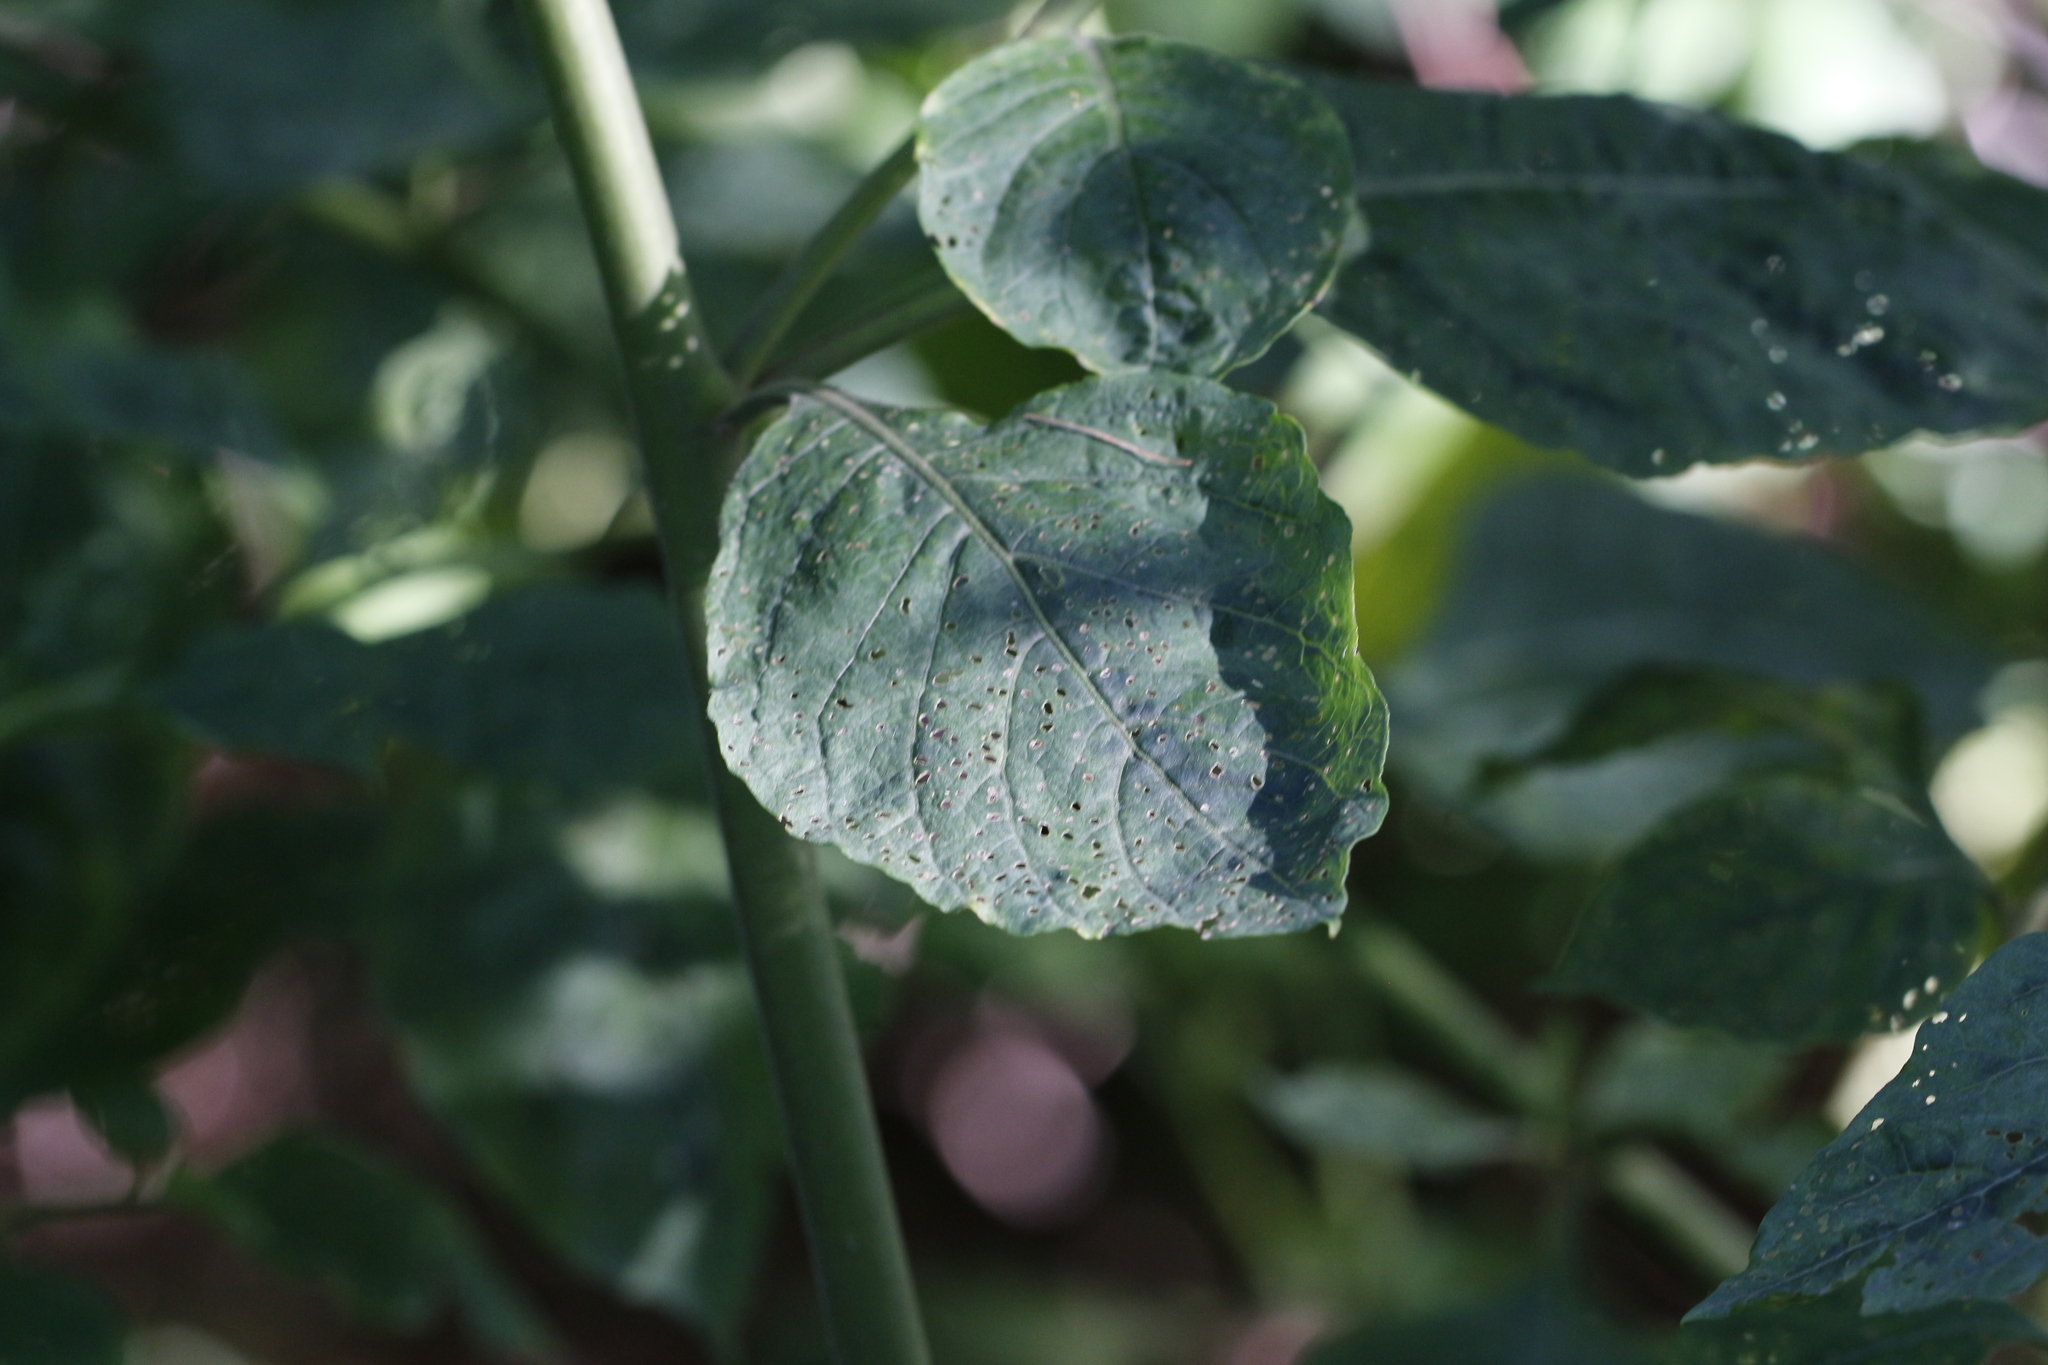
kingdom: Plantae
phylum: Tracheophyta
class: Magnoliopsida
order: Solanales
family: Solanaceae
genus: Atropa
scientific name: Atropa belladonna
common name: Deadly nightshade
